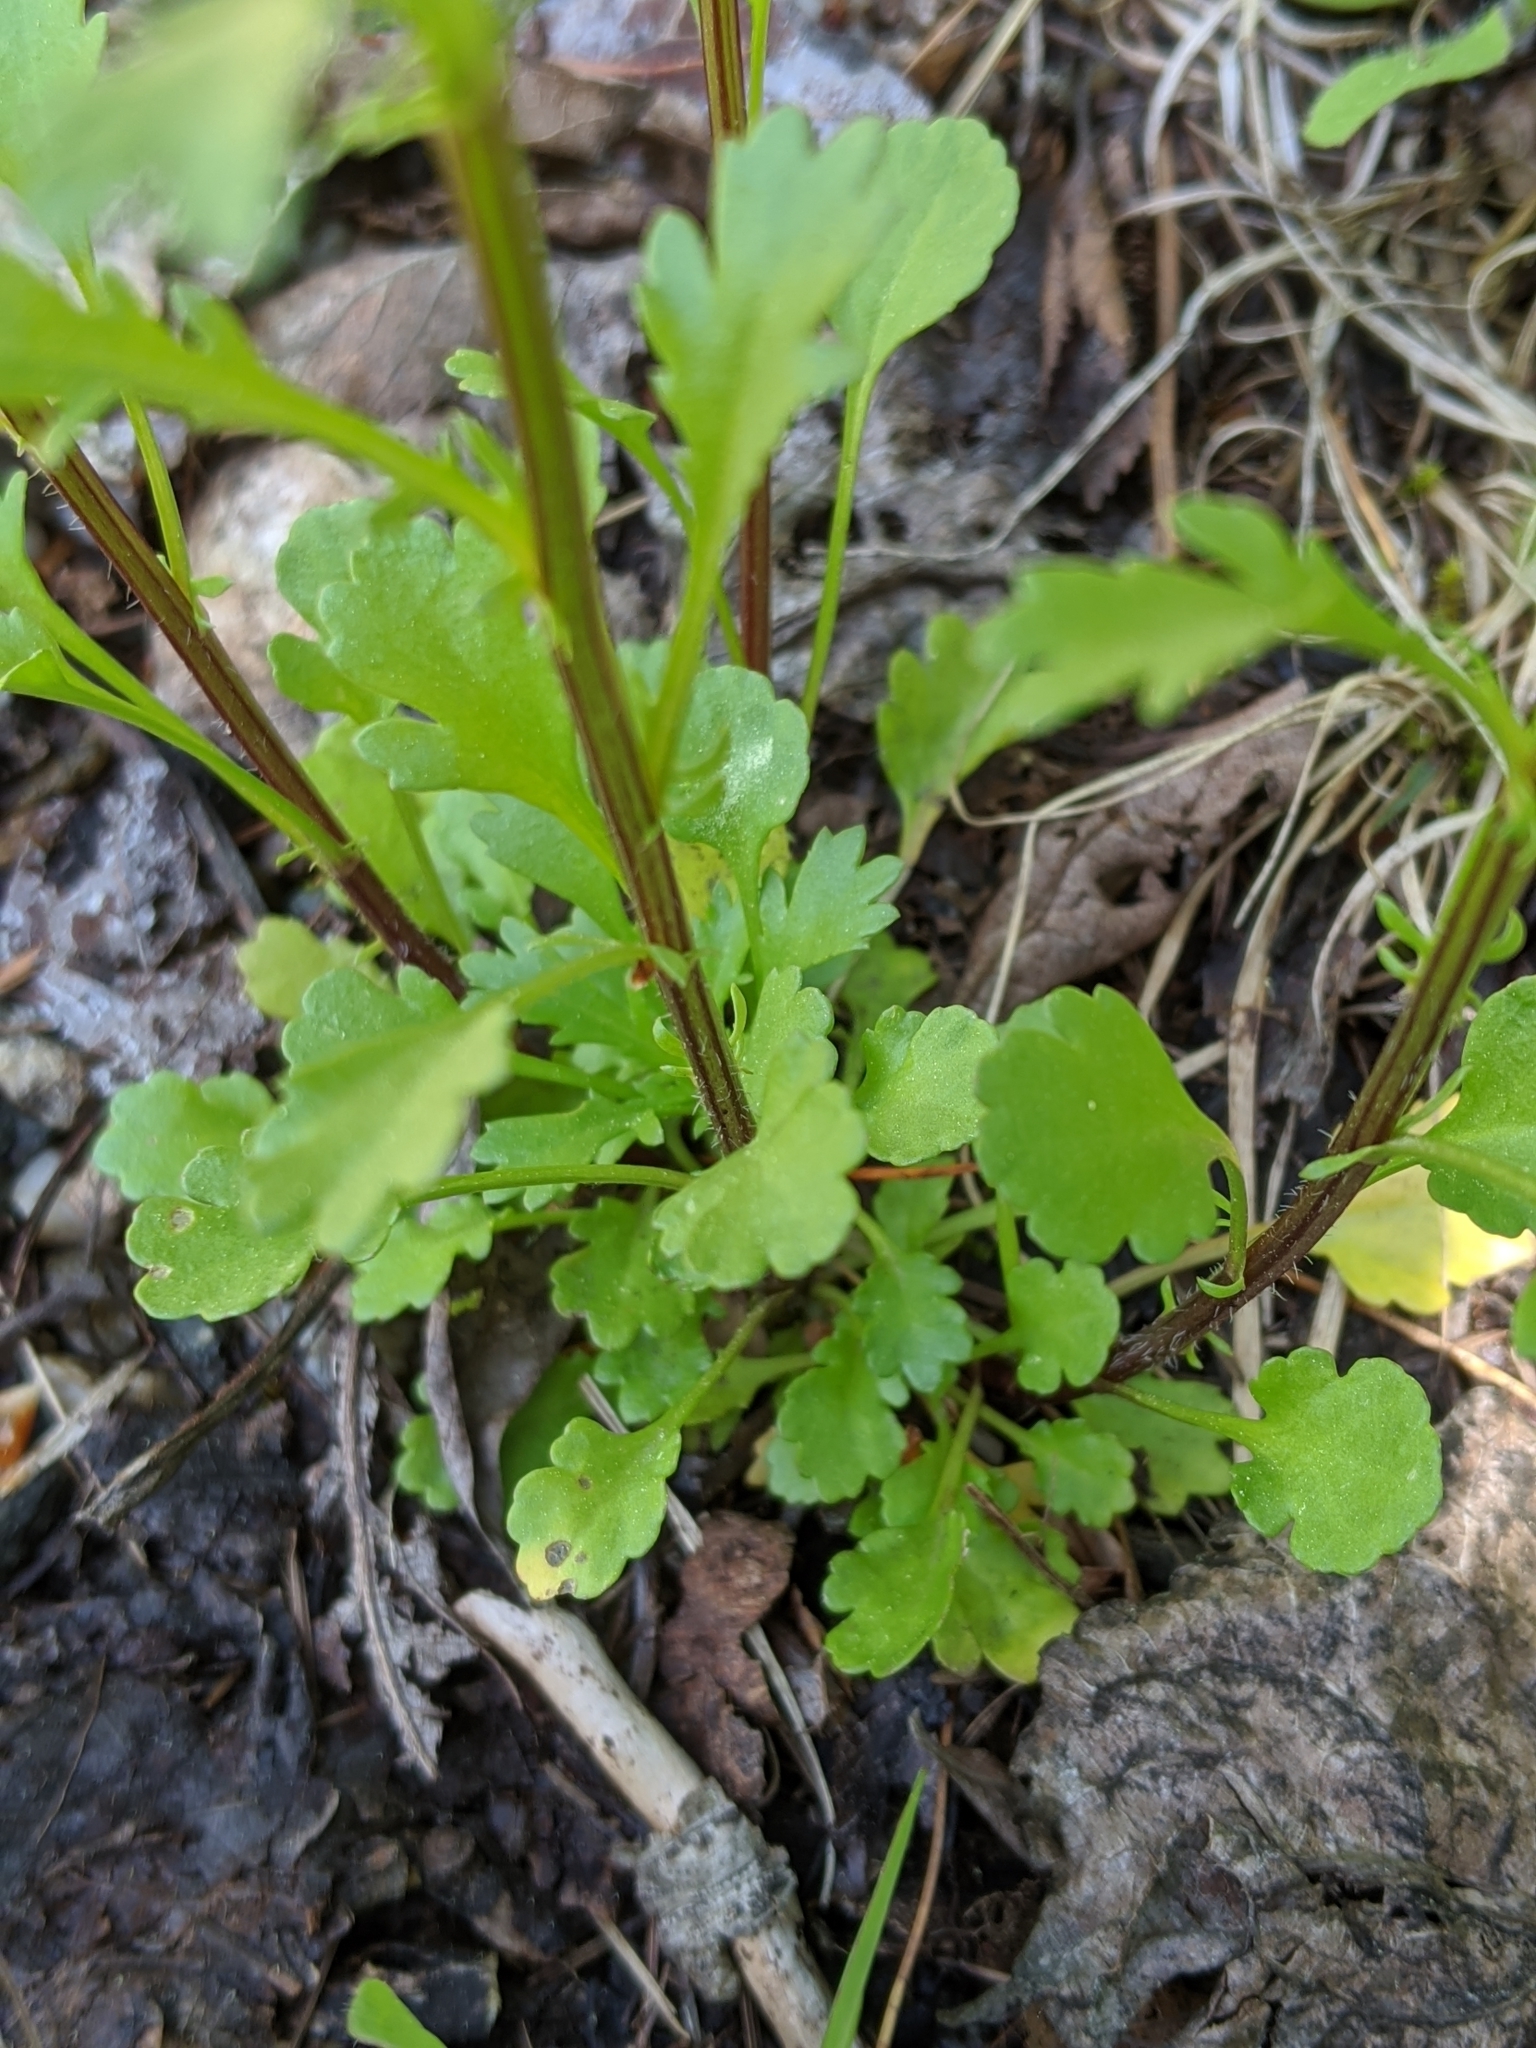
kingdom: Plantae
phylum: Tracheophyta
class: Magnoliopsida
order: Asterales
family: Asteraceae
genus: Leucanthemum
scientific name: Leucanthemum vulgare
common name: Oxeye daisy
